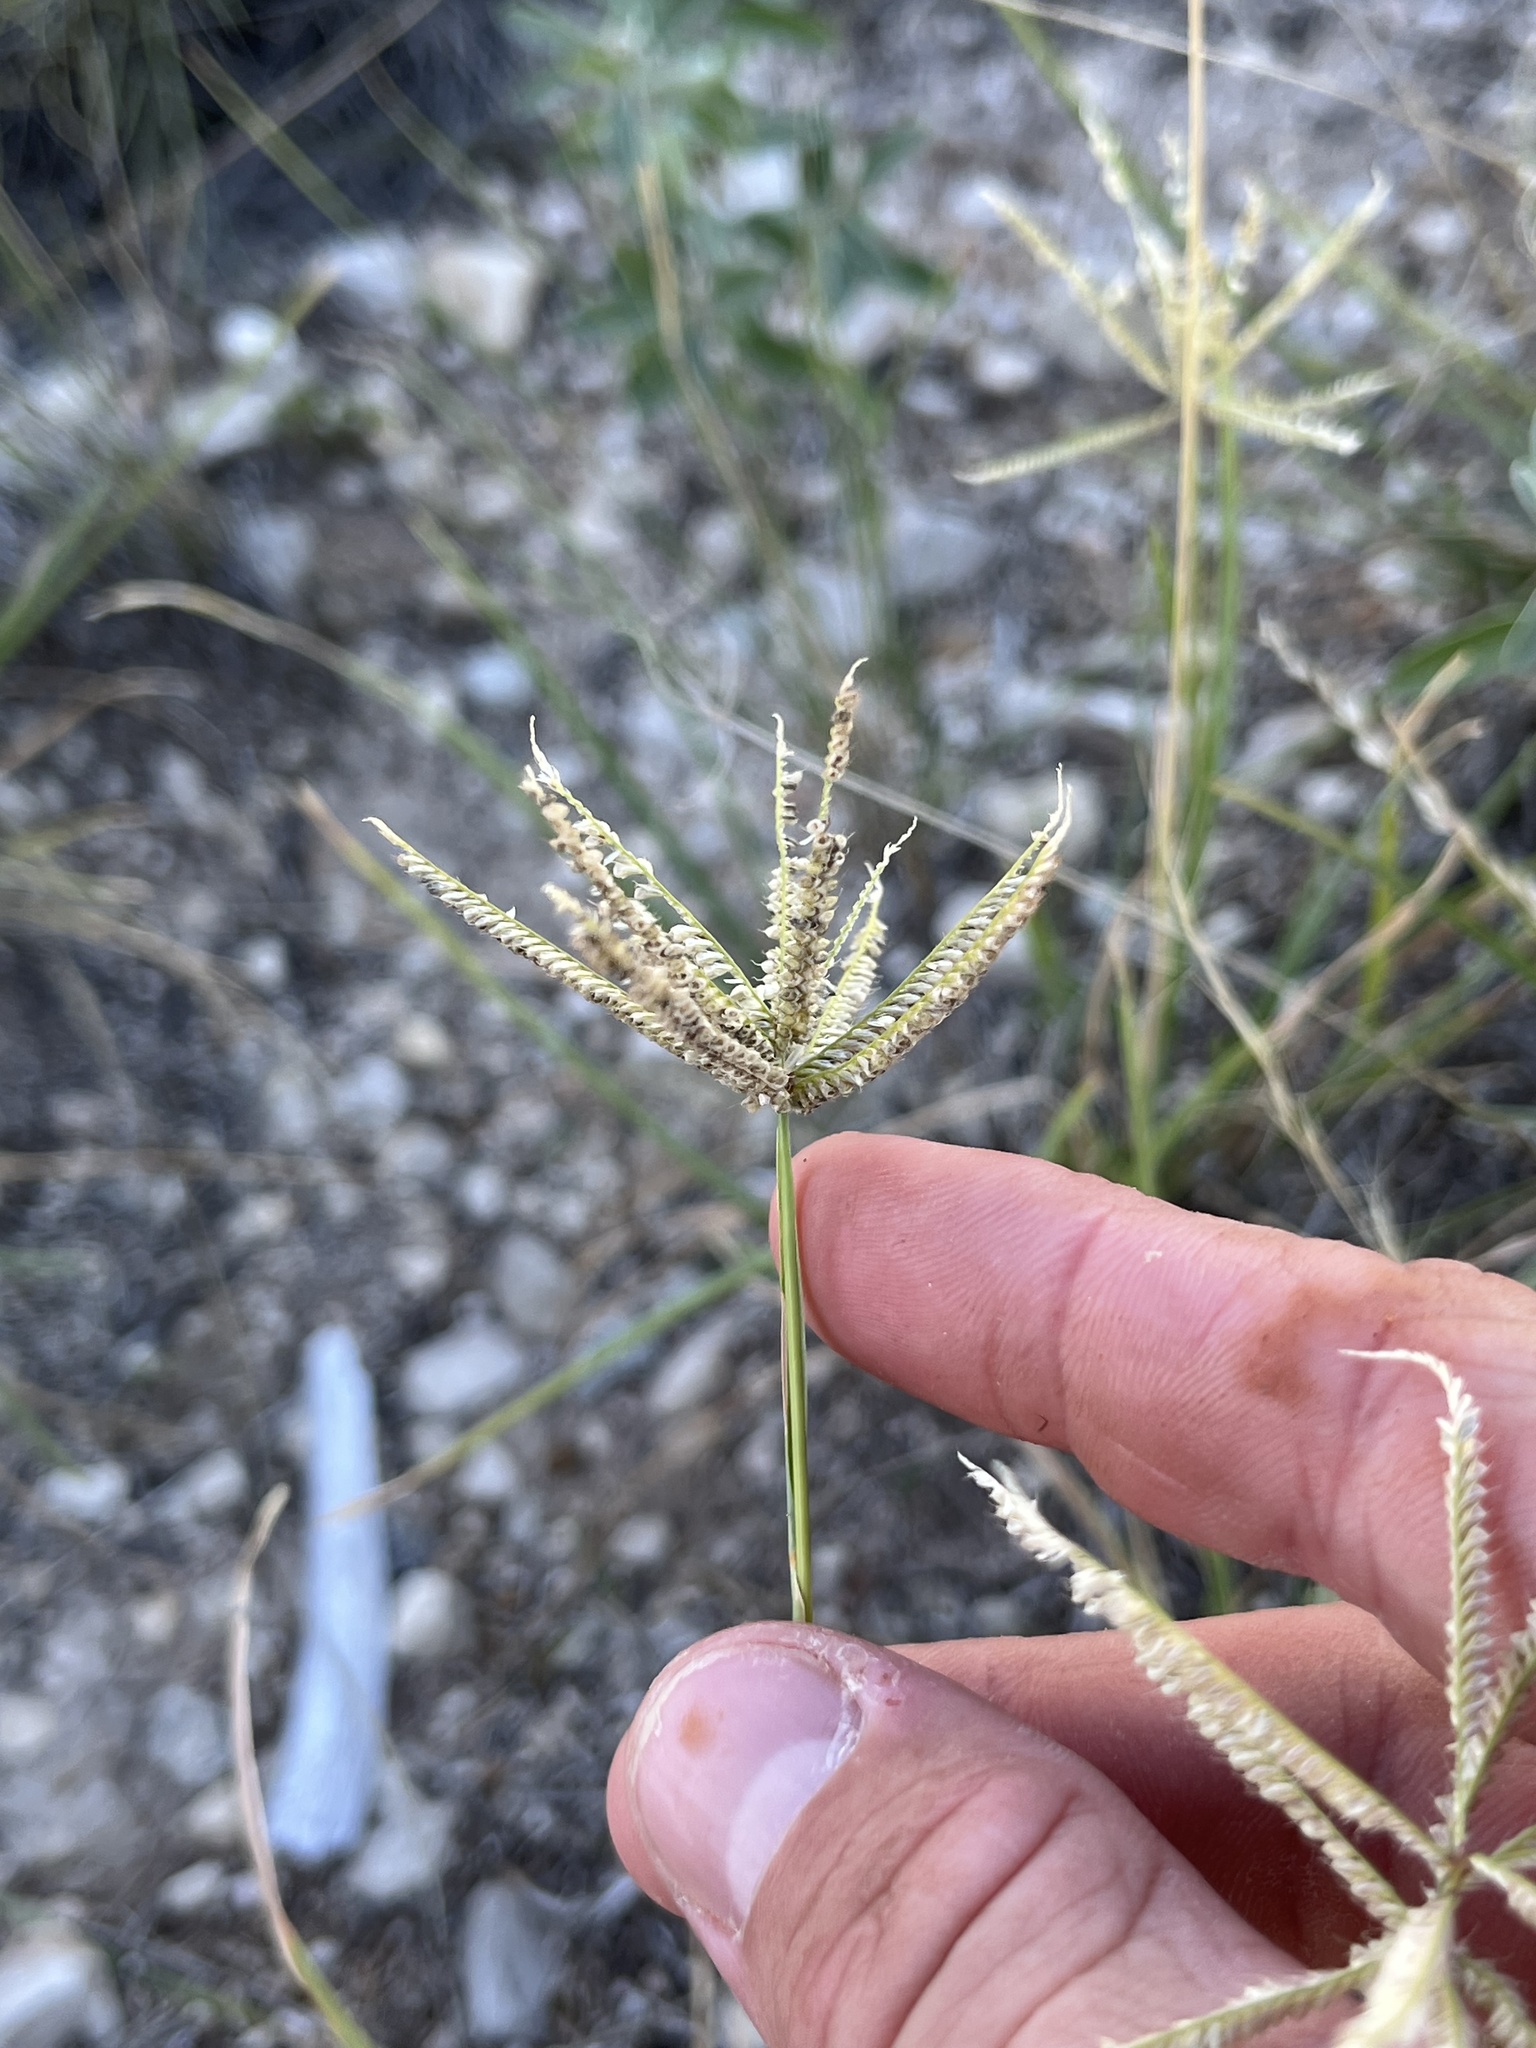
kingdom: Plantae
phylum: Tracheophyta
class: Liliopsida
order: Poales
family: Poaceae
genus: Chloris
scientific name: Chloris cucullata
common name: Hooded windmill grass
